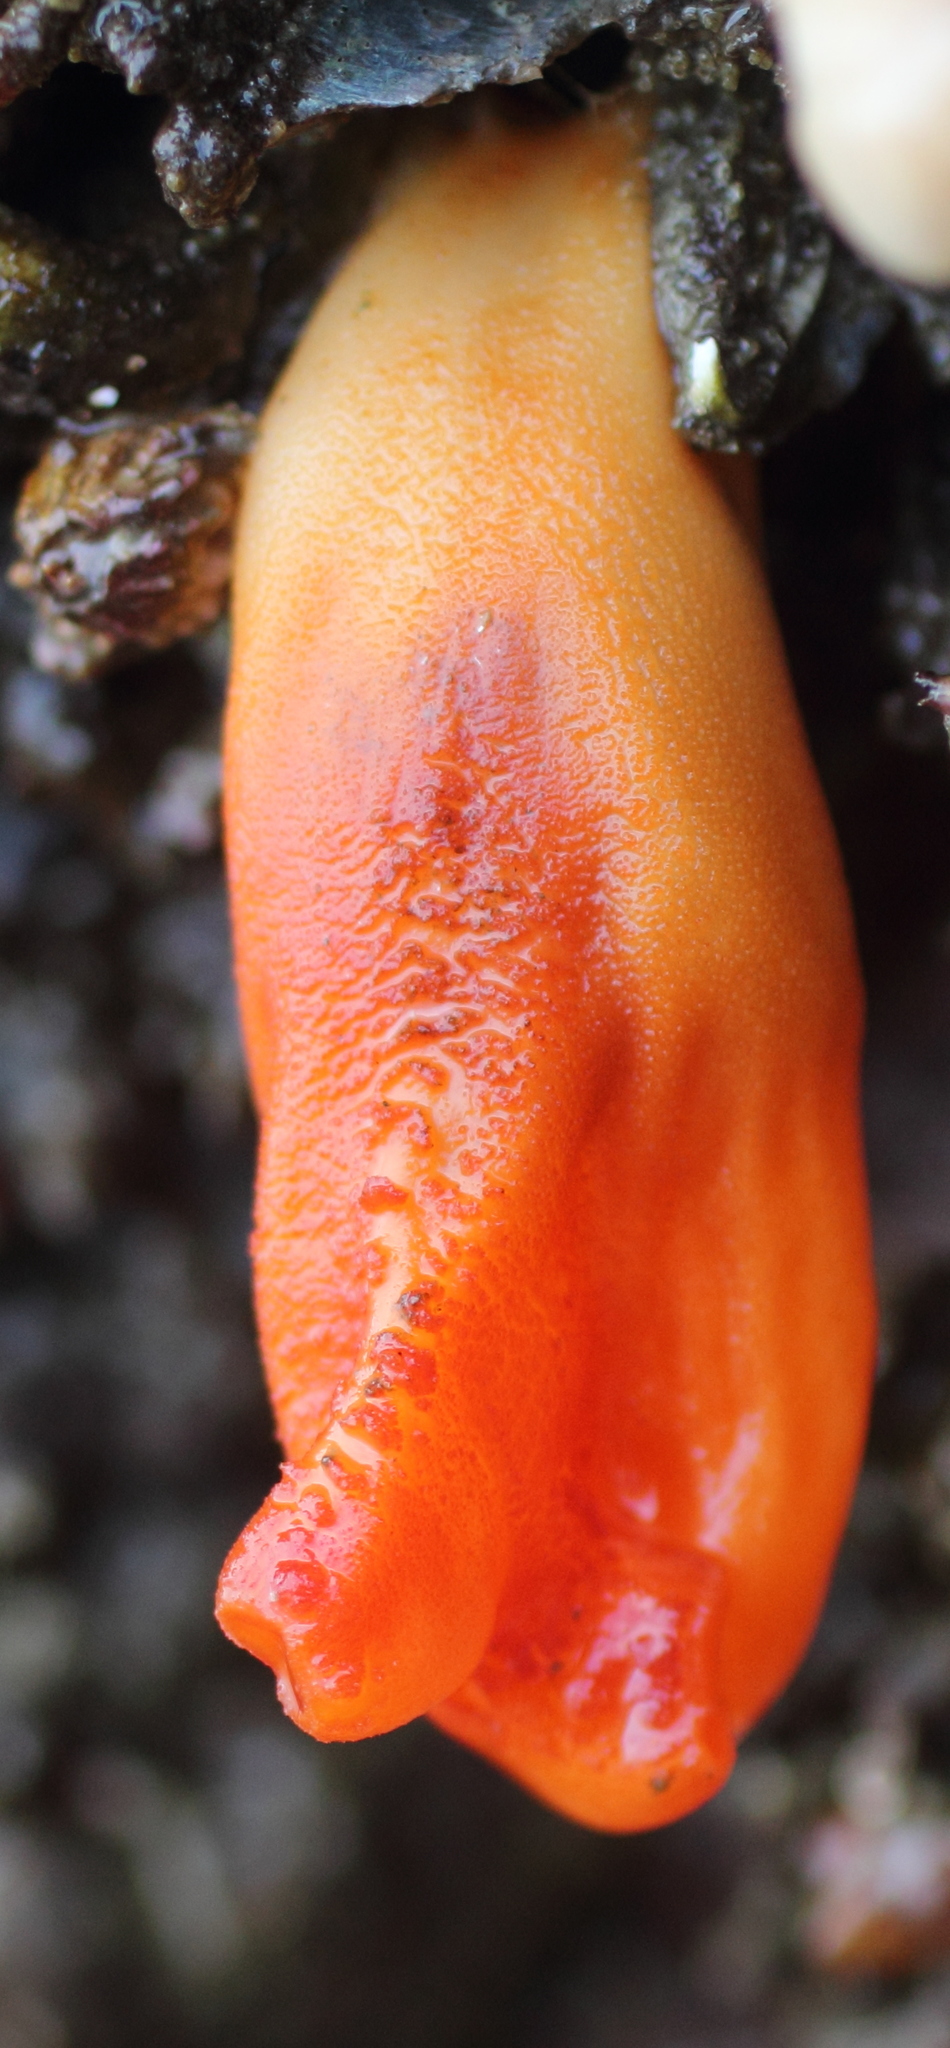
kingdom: Animalia
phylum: Chordata
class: Ascidiacea
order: Stolidobranchia
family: Pyuridae
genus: Halocynthia
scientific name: Halocynthia aurantium
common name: Sea peach
